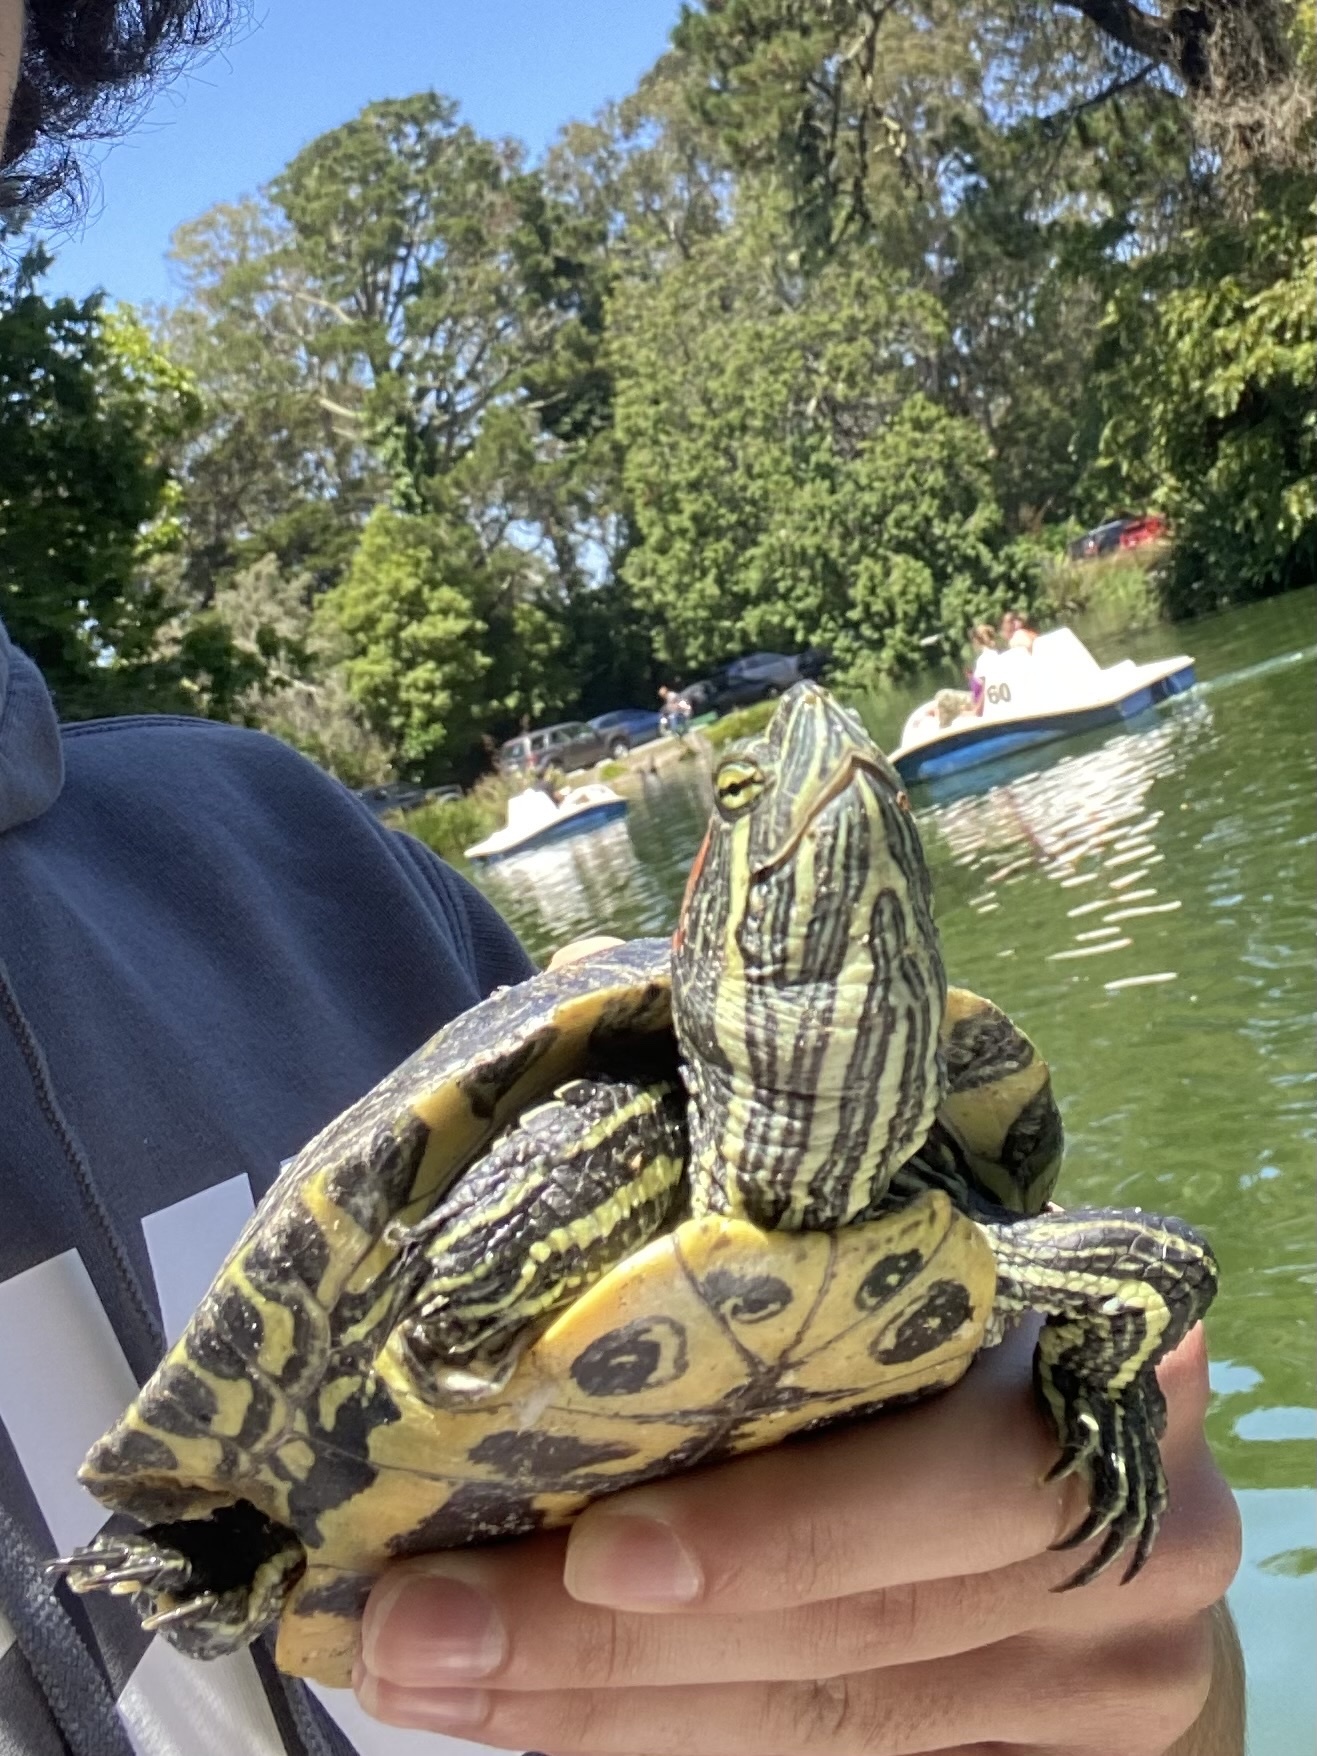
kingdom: Animalia
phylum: Chordata
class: Testudines
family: Emydidae
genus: Trachemys
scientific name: Trachemys scripta
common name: Slider
